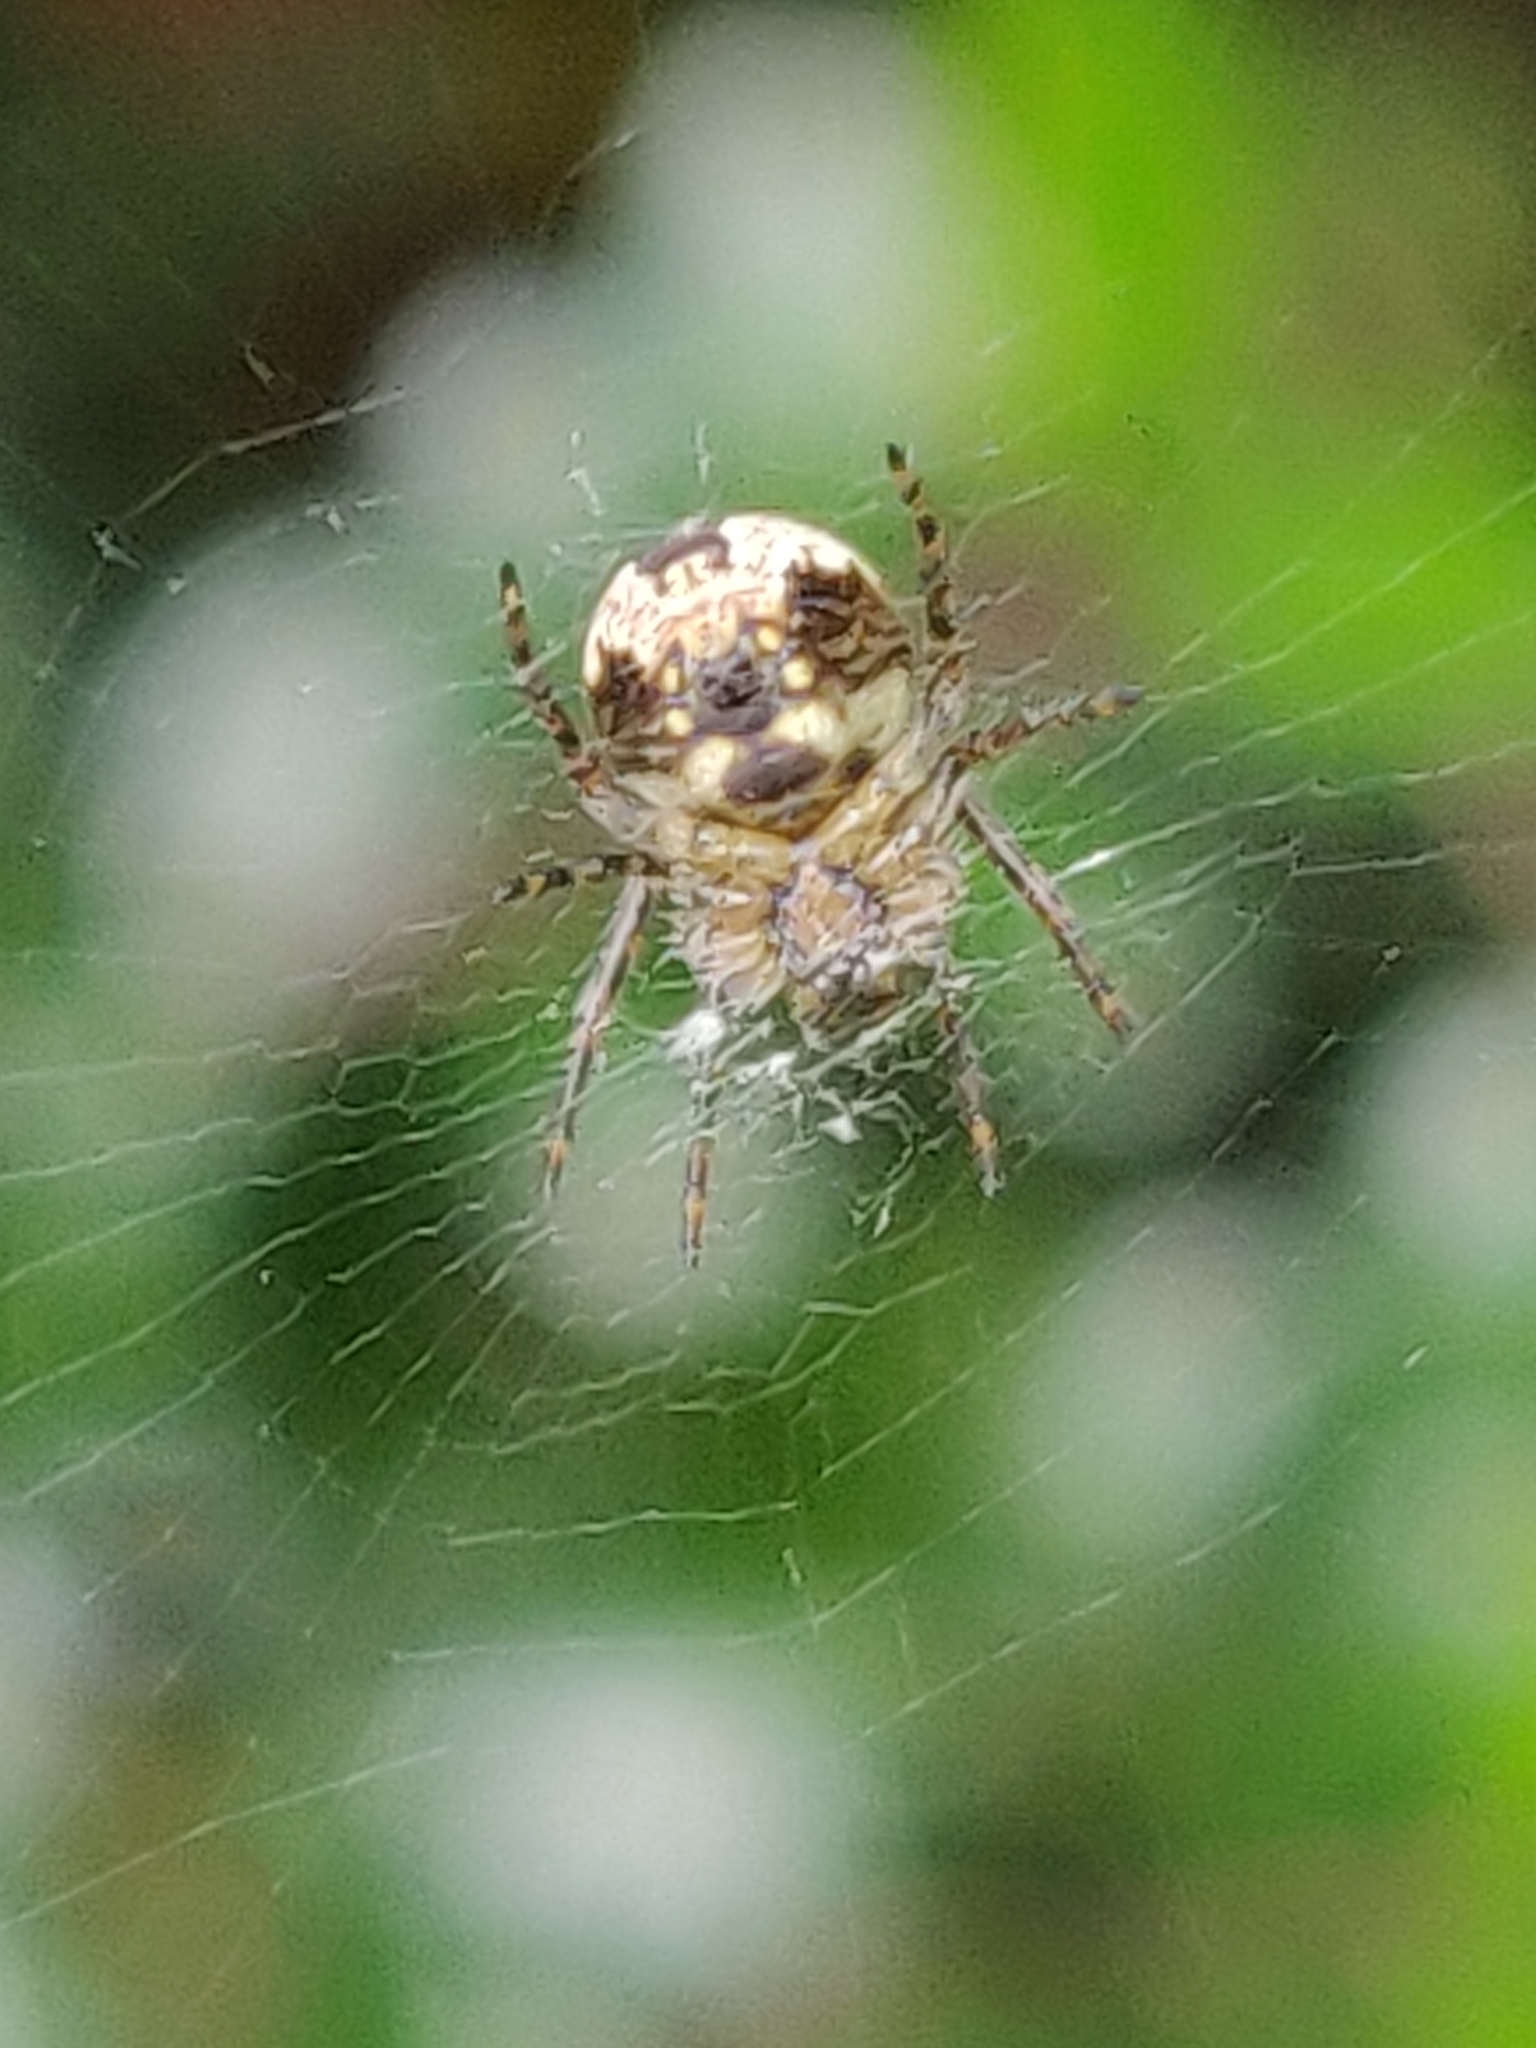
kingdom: Animalia
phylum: Arthropoda
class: Arachnida
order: Araneae
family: Araneidae
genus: Zilla
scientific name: Zilla diodia
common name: Zilla diodia
